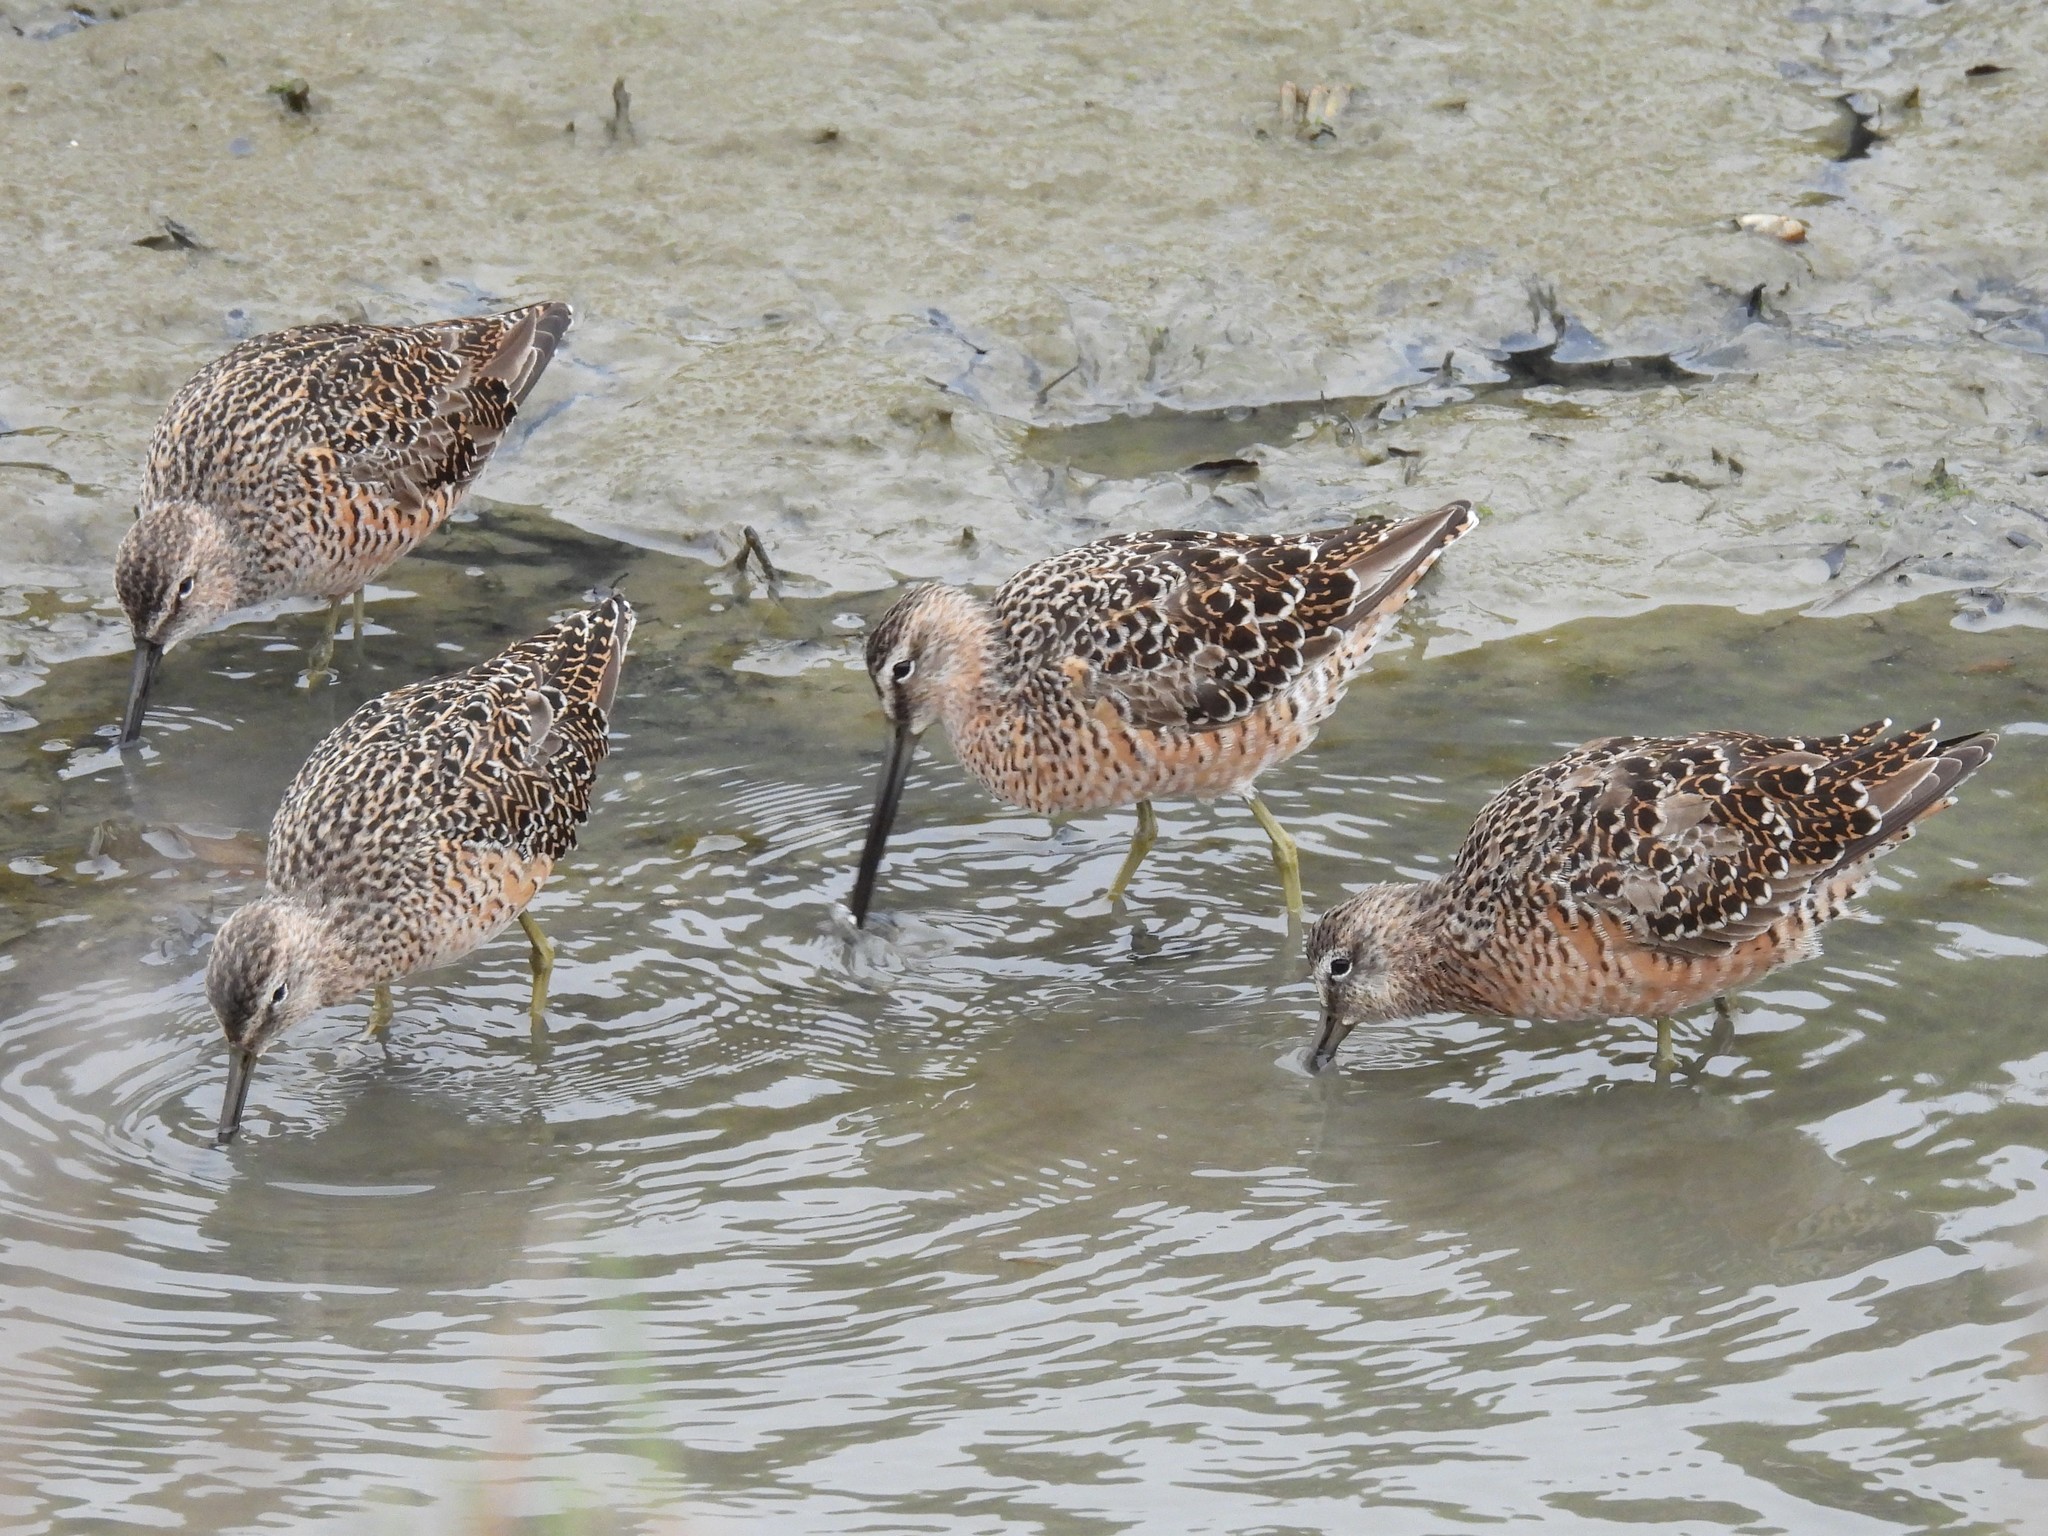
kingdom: Animalia
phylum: Chordata
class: Aves
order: Charadriiformes
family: Scolopacidae
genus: Limnodromus
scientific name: Limnodromus scolopaceus
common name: Long-billed dowitcher
